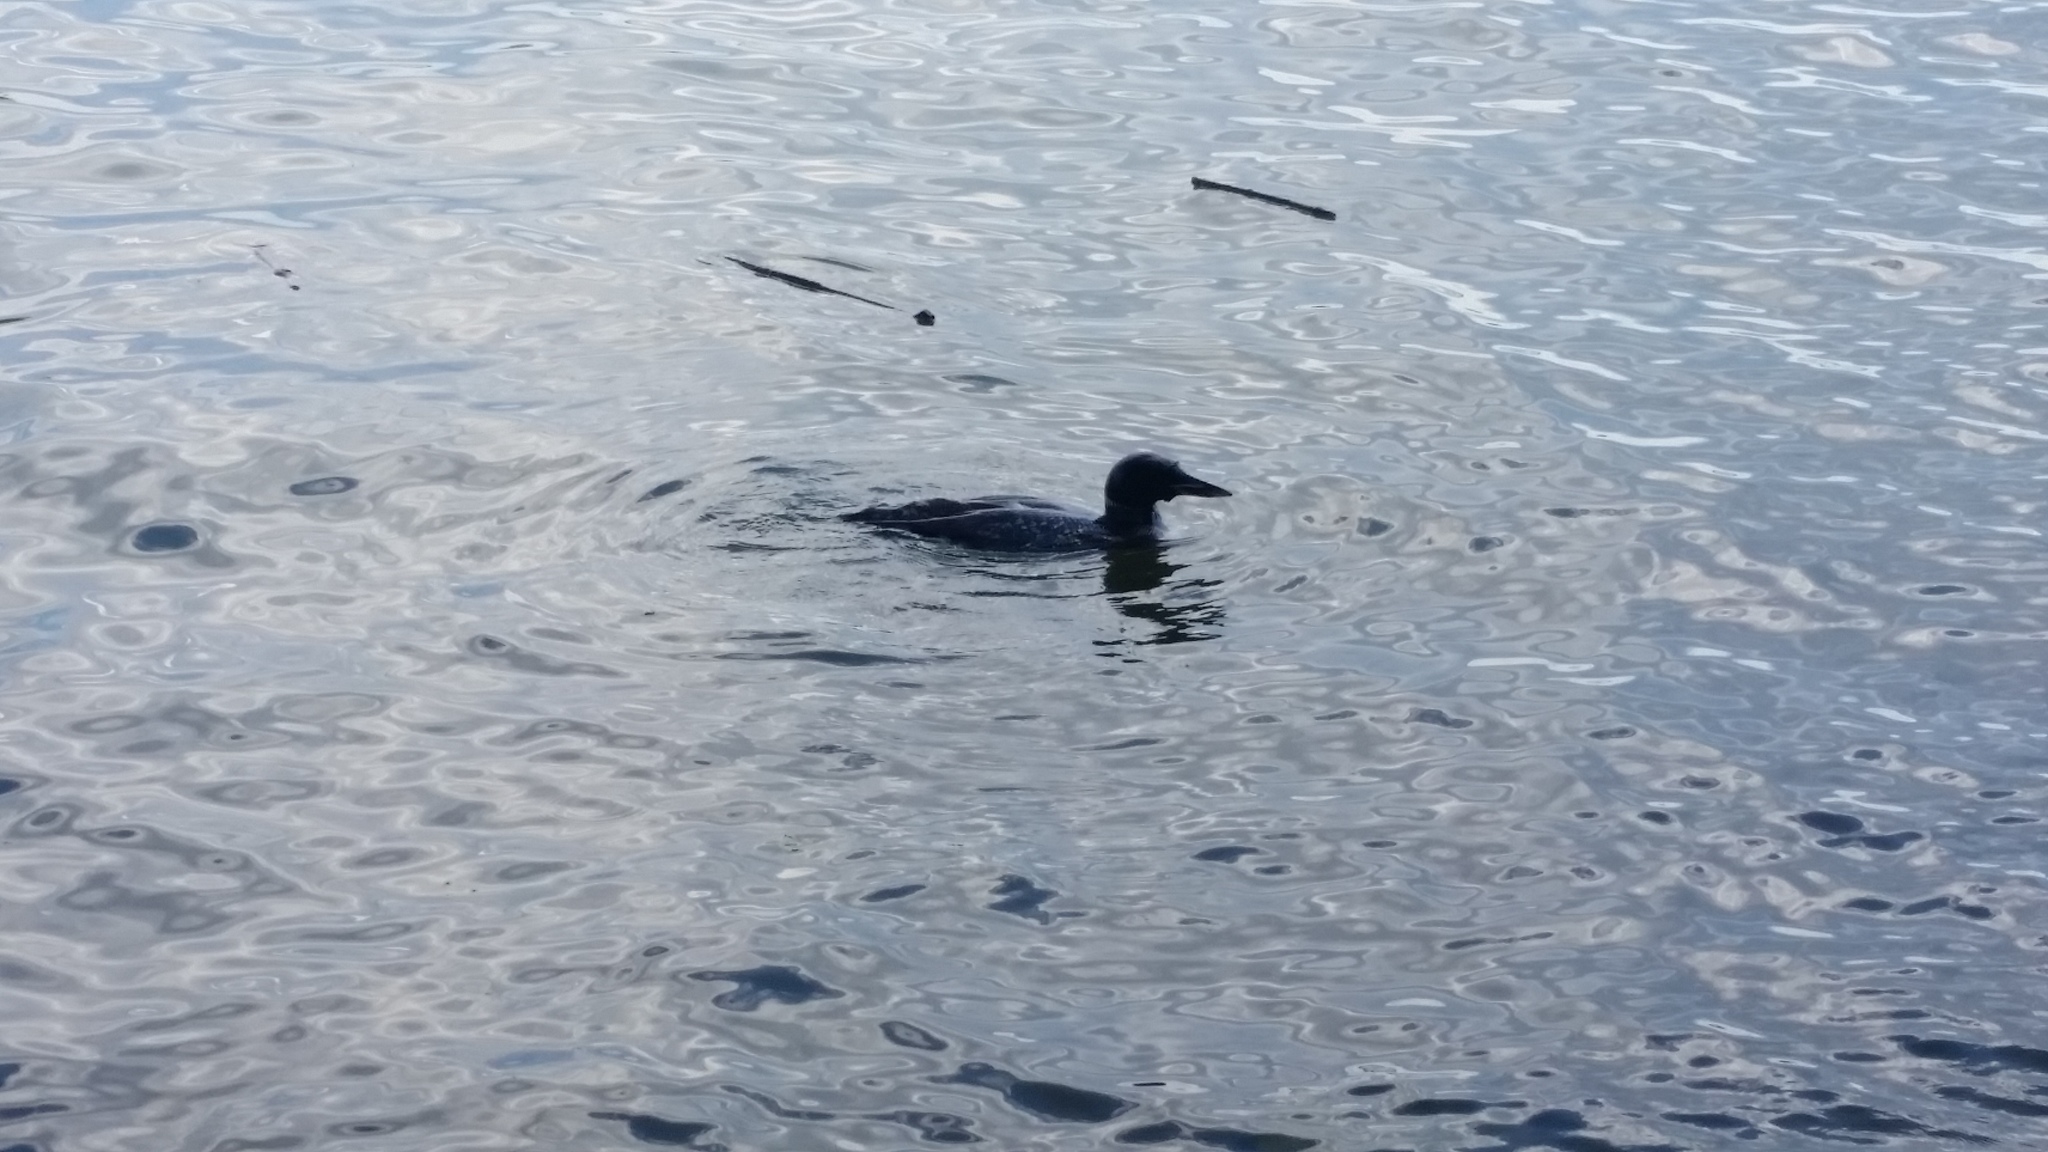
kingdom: Animalia
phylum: Chordata
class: Aves
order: Gaviiformes
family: Gaviidae
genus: Gavia
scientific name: Gavia immer
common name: Common loon
